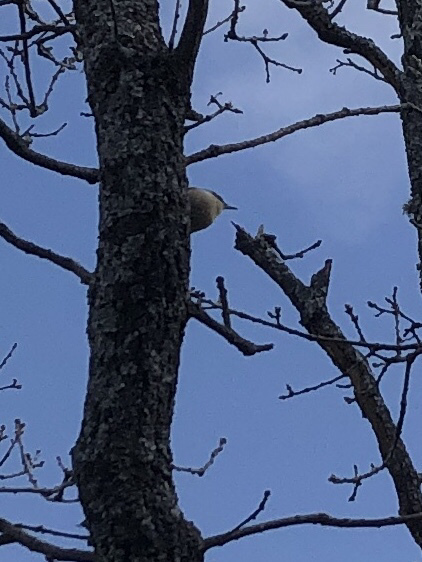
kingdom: Animalia
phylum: Chordata
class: Aves
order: Passeriformes
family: Sittidae
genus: Sitta
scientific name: Sitta europaea
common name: Eurasian nuthatch
